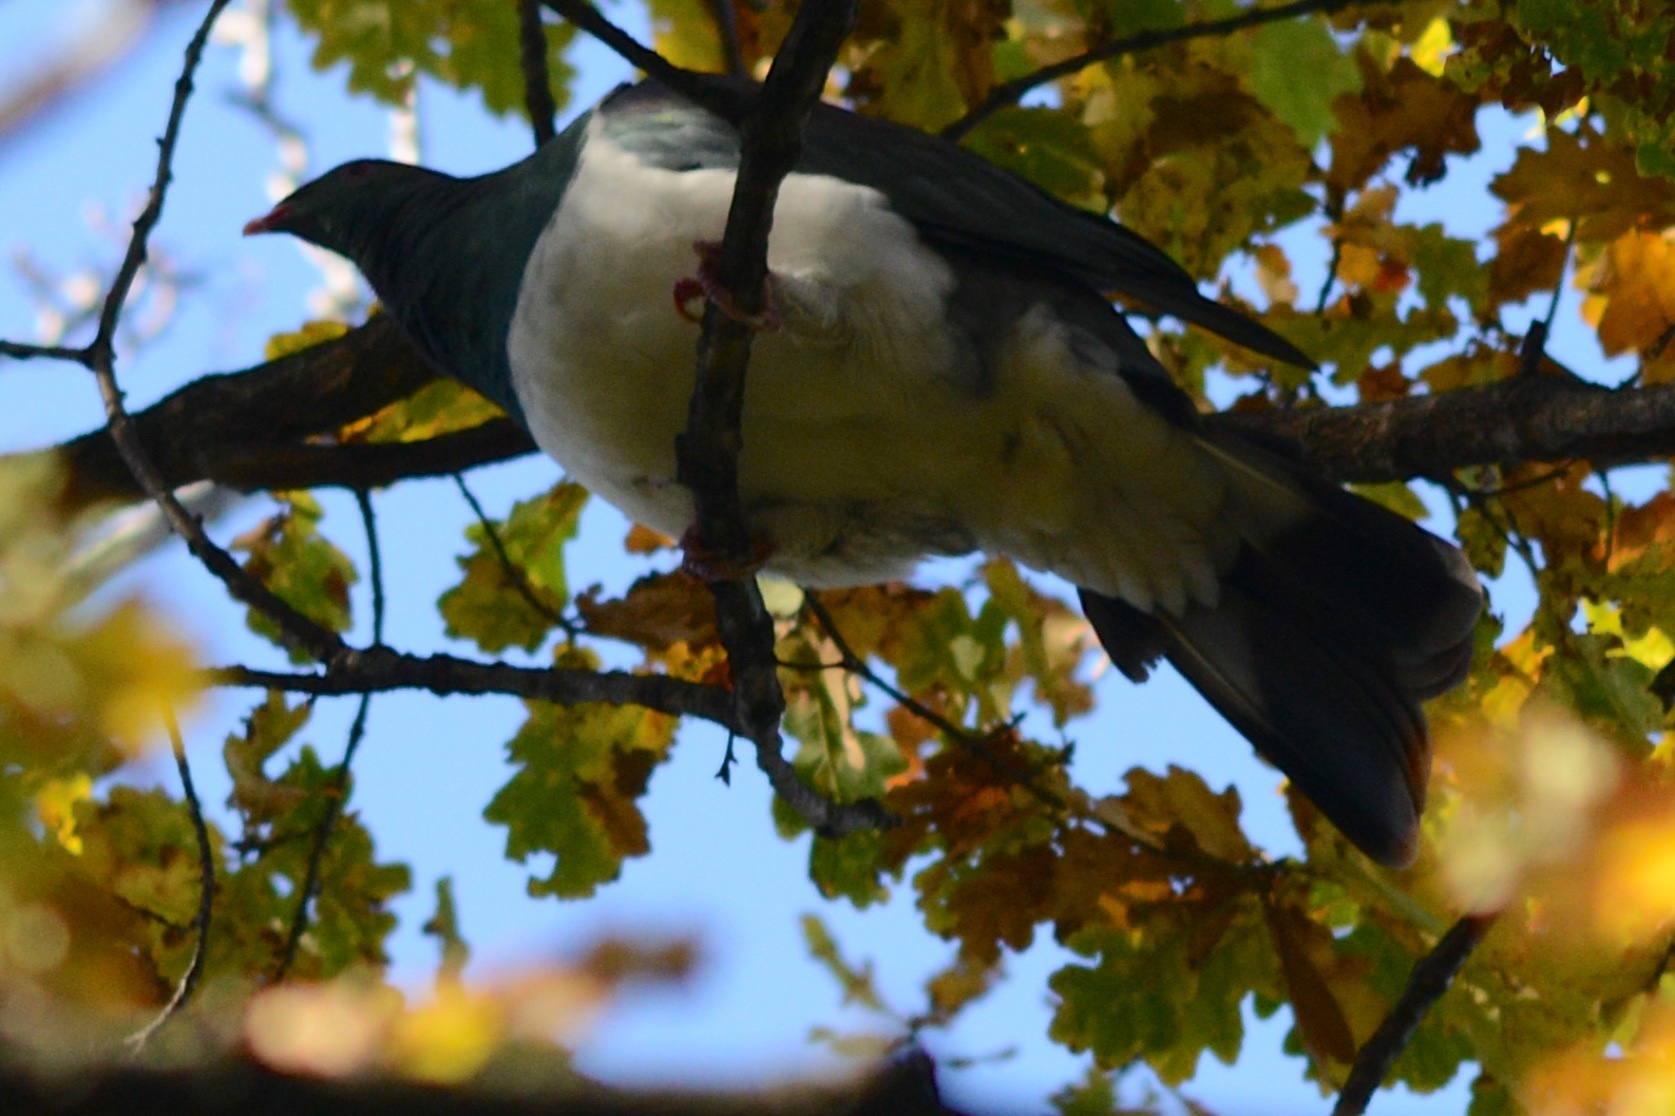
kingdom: Animalia
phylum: Chordata
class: Aves
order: Columbiformes
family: Columbidae
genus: Hemiphaga
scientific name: Hemiphaga novaeseelandiae
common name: New zealand pigeon
